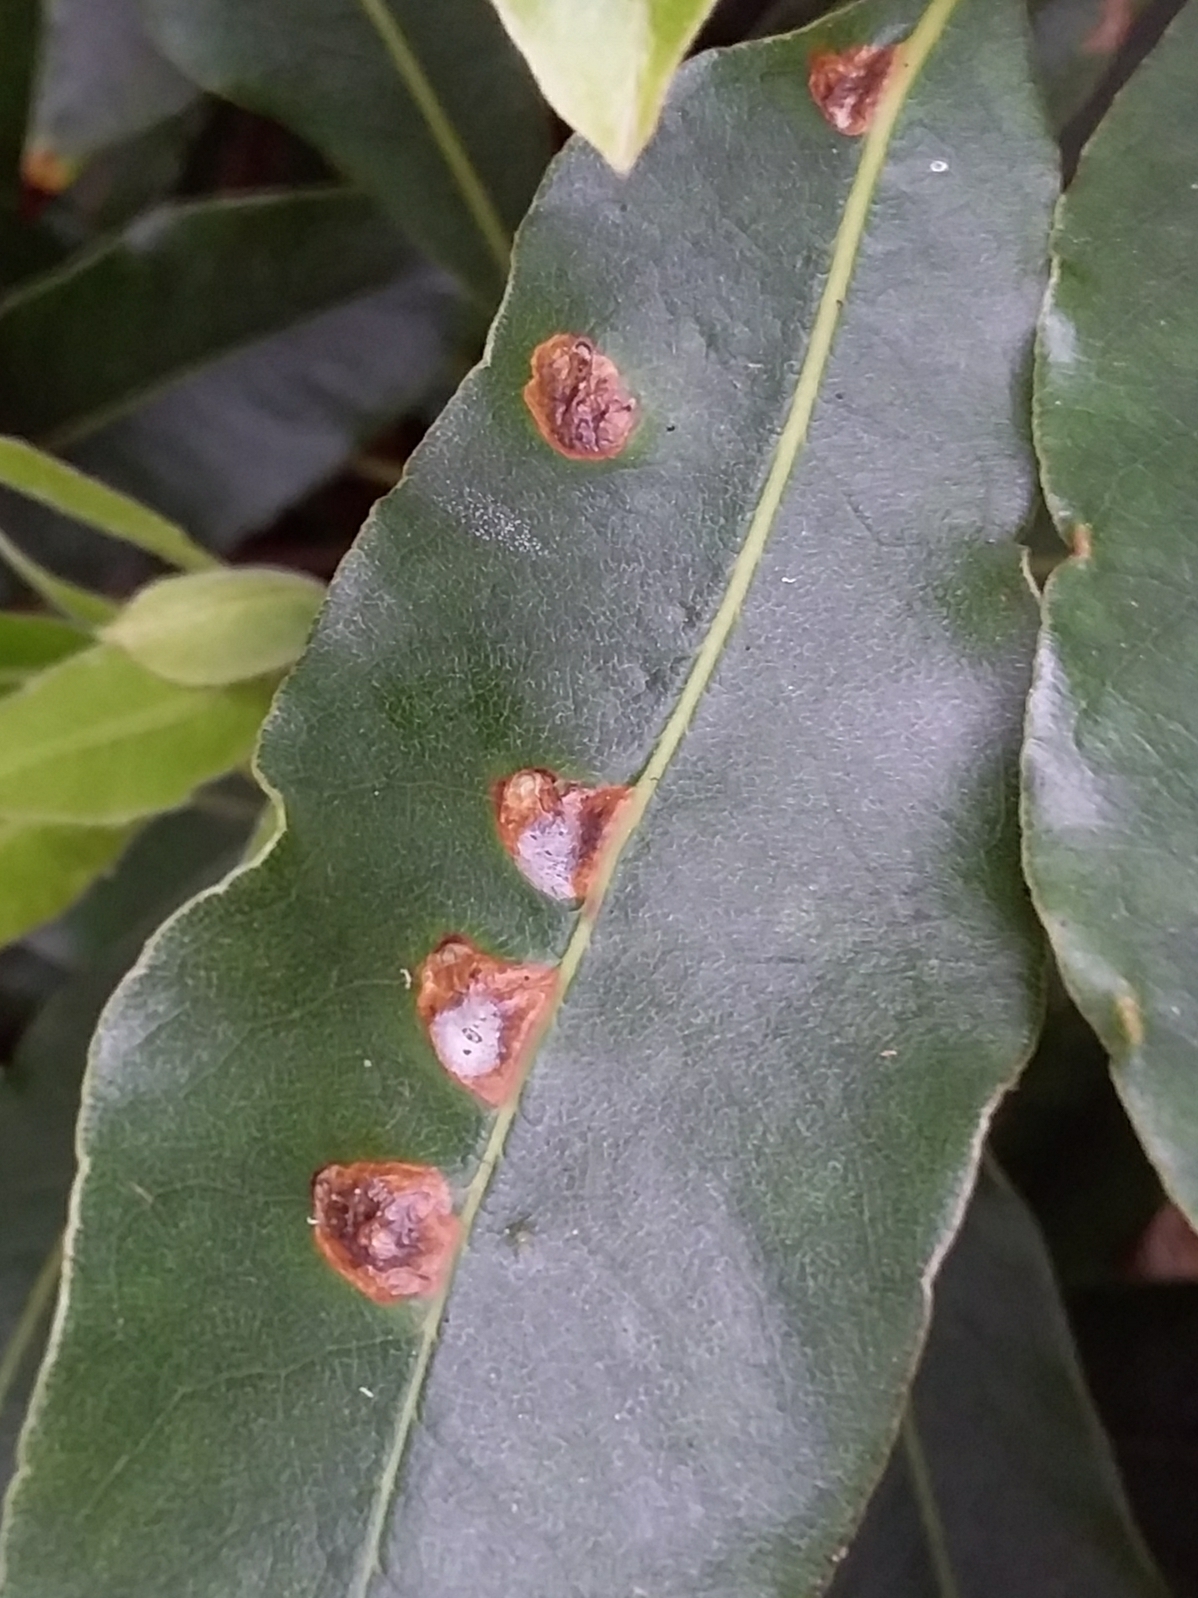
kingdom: Animalia
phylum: Arthropoda
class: Insecta
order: Diptera
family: Agromyzidae
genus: Phytoliriomyza
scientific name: Phytoliriomyza pittosporophylli
